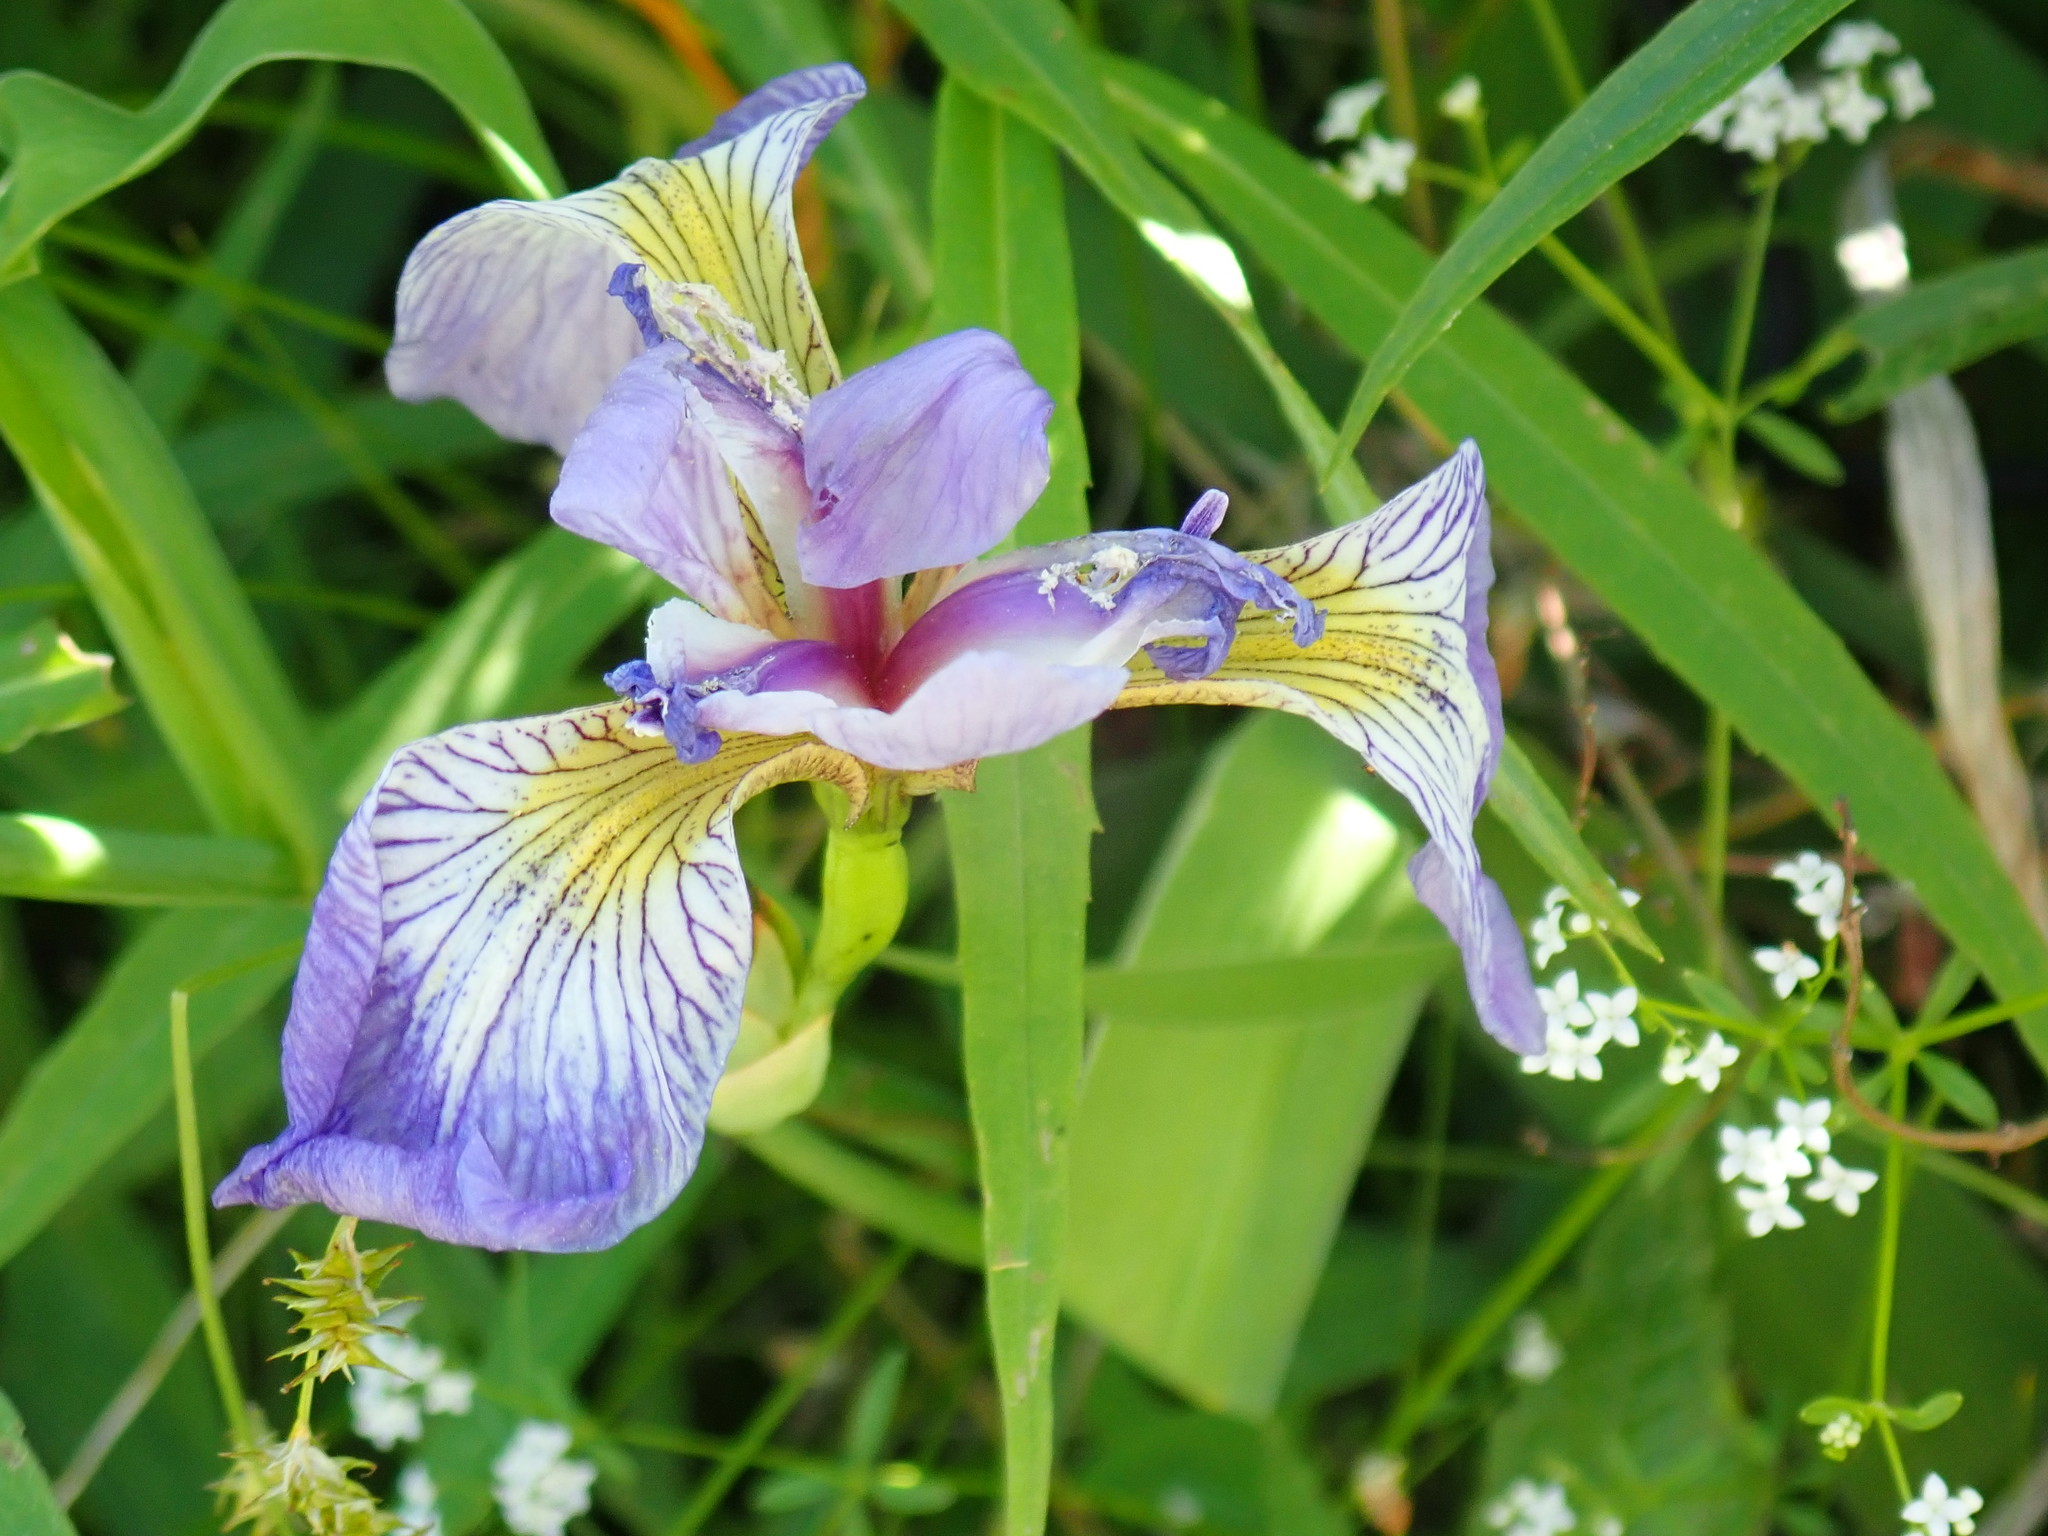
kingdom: Plantae
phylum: Tracheophyta
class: Liliopsida
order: Asparagales
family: Iridaceae
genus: Iris
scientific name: Iris versicolor
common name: Purple iris
